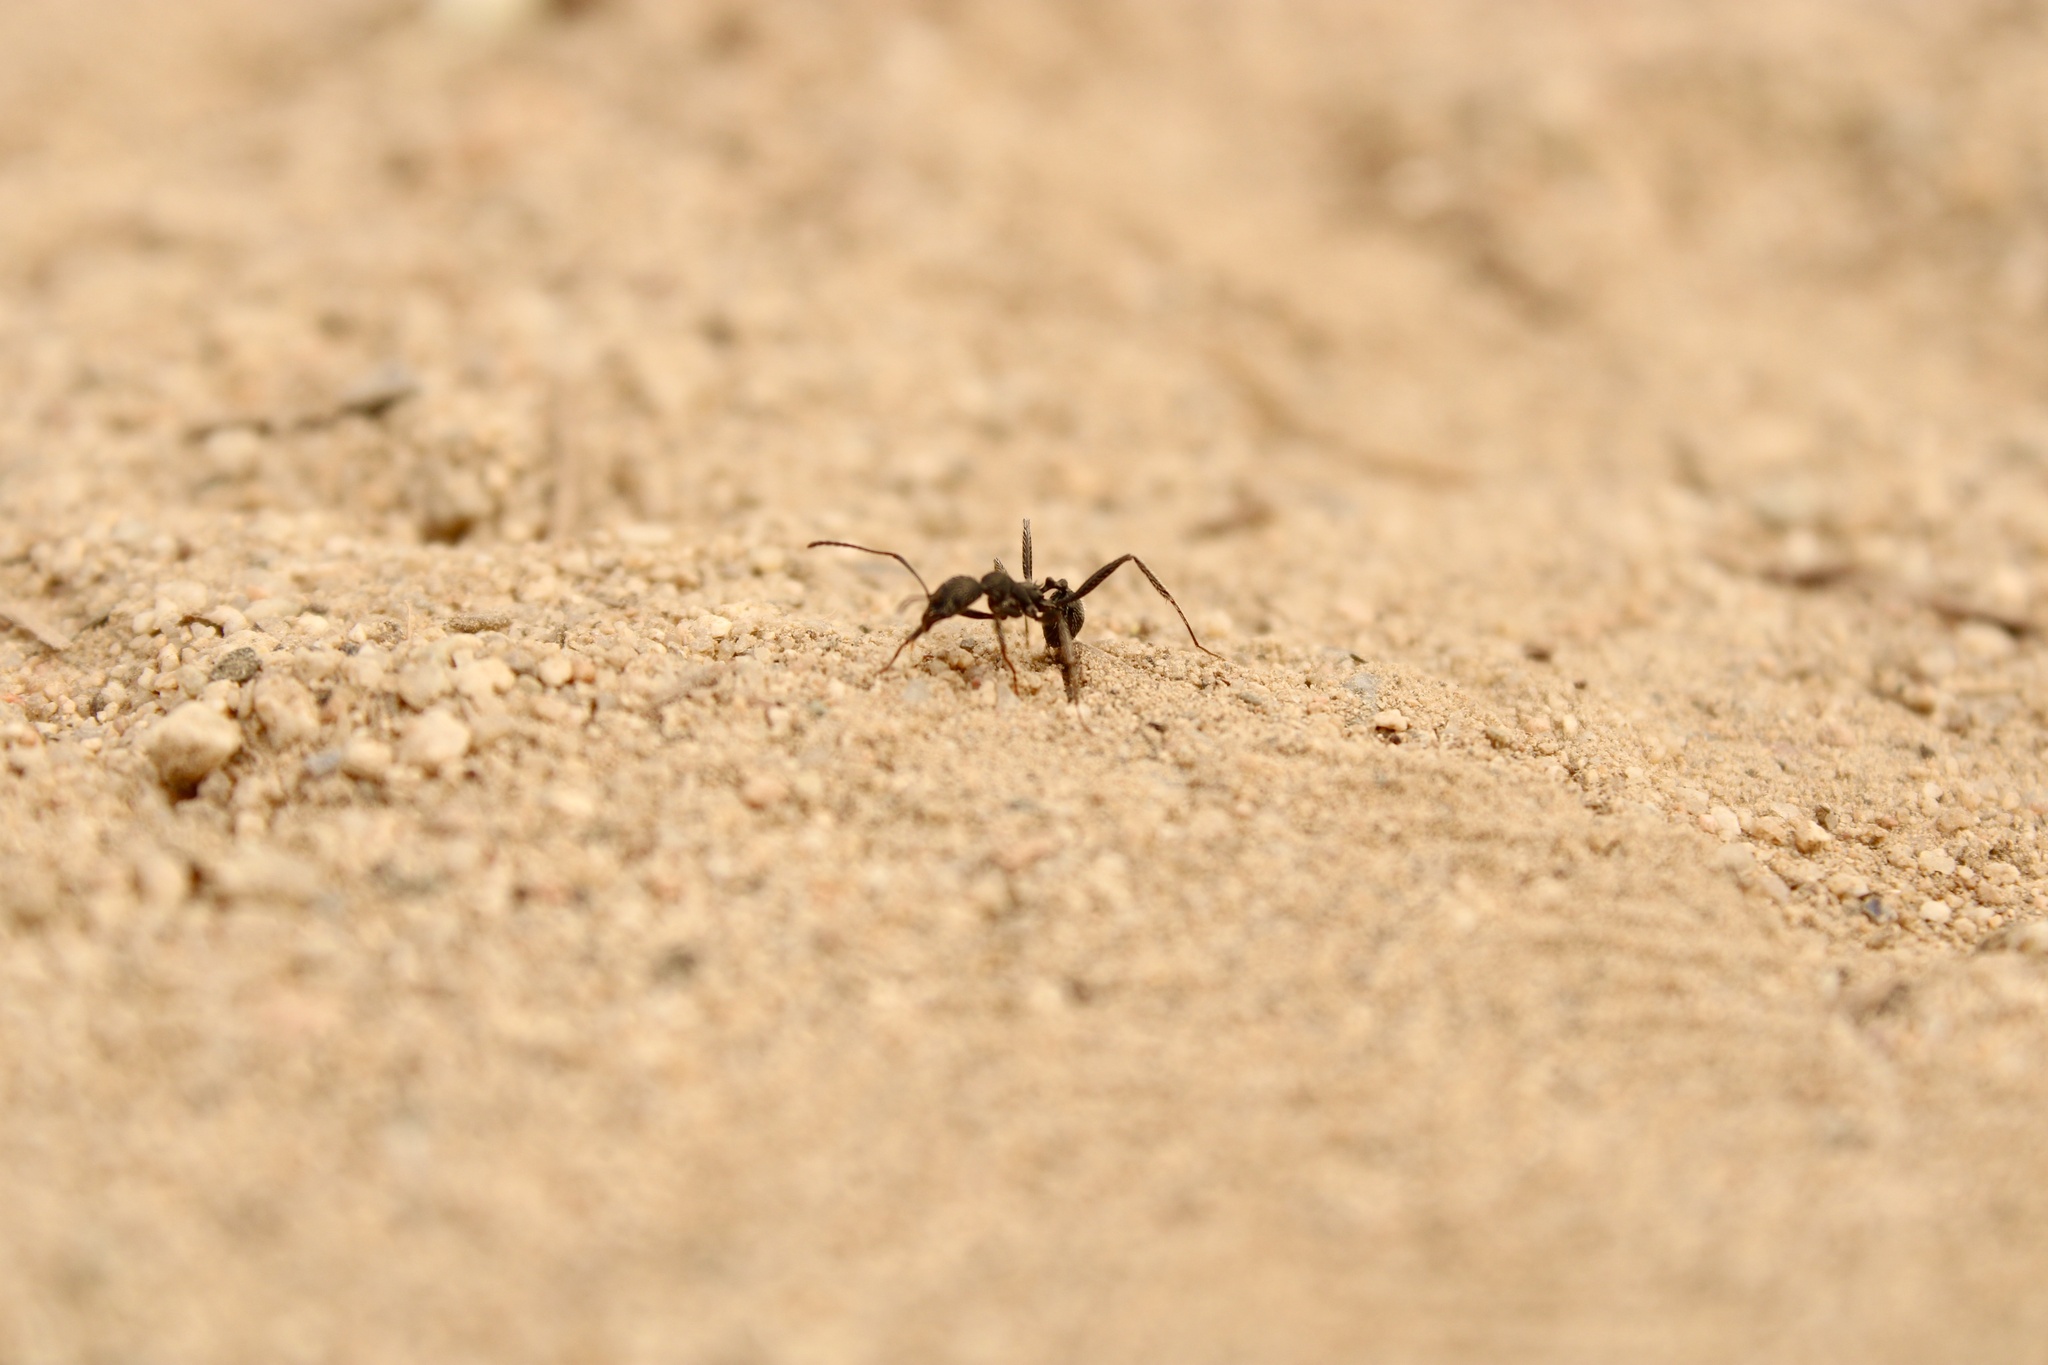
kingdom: Animalia
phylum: Arthropoda
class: Insecta
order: Hymenoptera
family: Formicidae
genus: Aphaenogaster
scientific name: Aphaenogaster senilis
